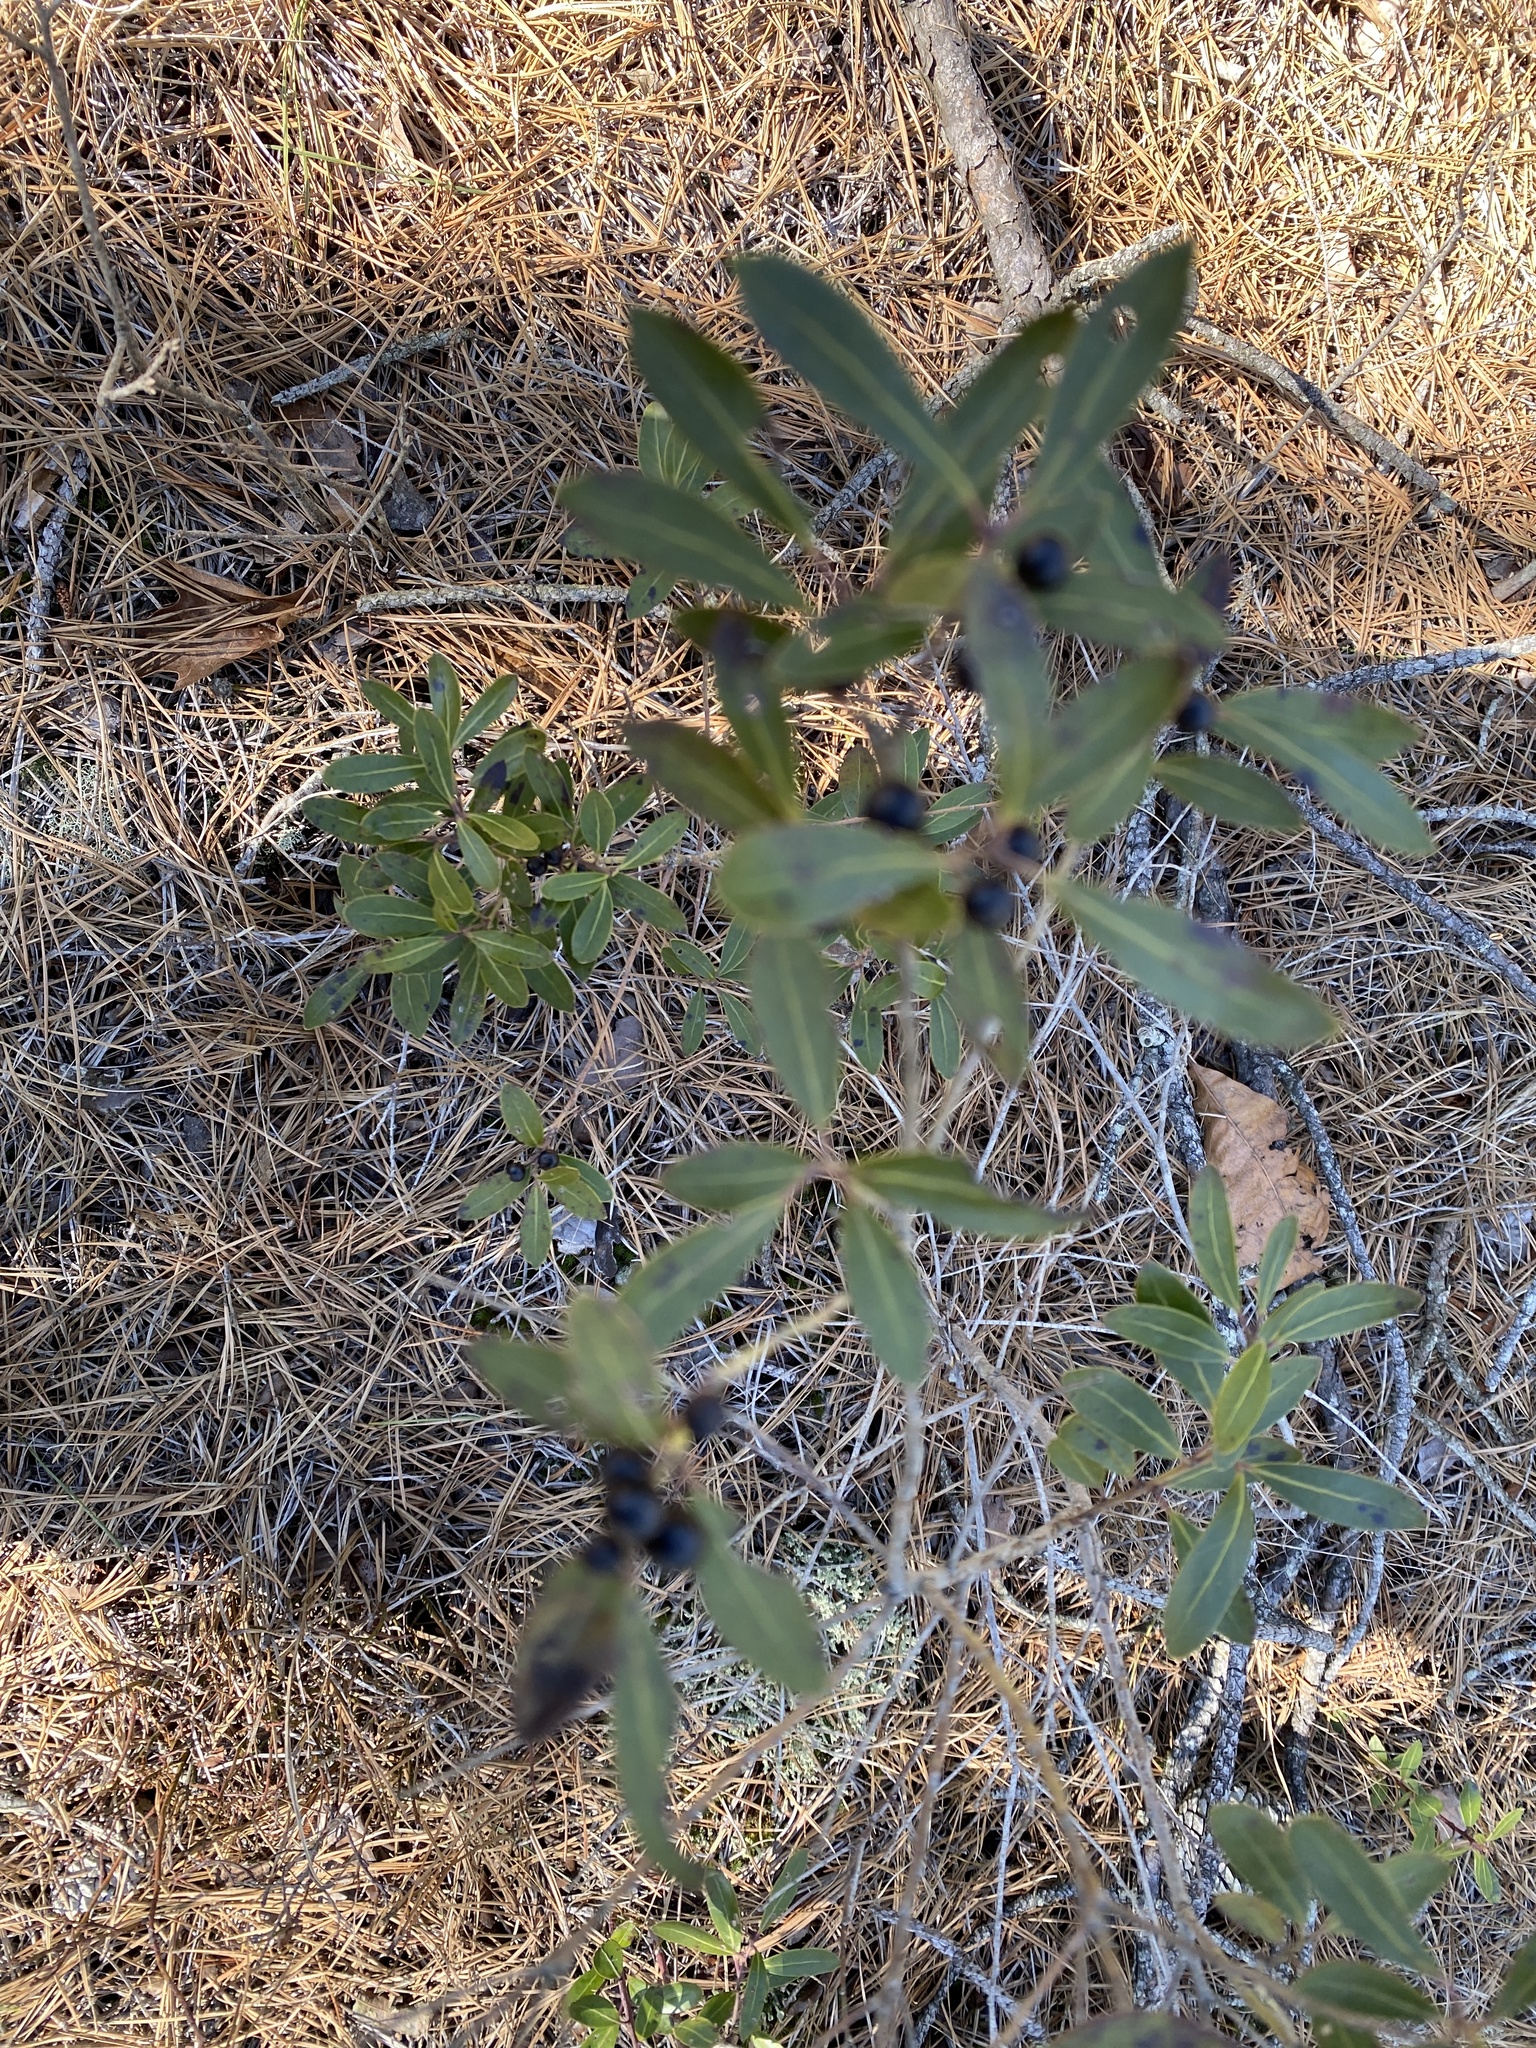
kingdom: Plantae
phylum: Tracheophyta
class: Magnoliopsida
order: Aquifoliales
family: Aquifoliaceae
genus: Ilex
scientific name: Ilex glabra
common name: Bitter gallberry
